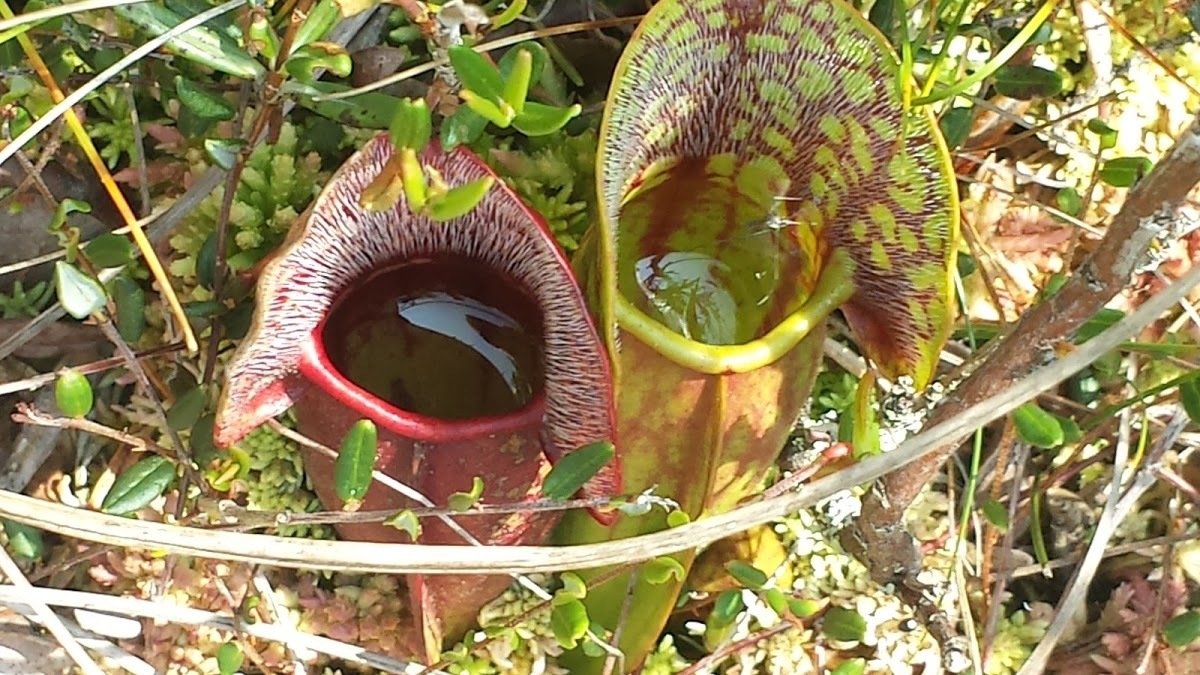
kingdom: Plantae
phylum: Tracheophyta
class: Magnoliopsida
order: Ericales
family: Sarraceniaceae
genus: Sarracenia
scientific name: Sarracenia purpurea
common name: Pitcherplant
